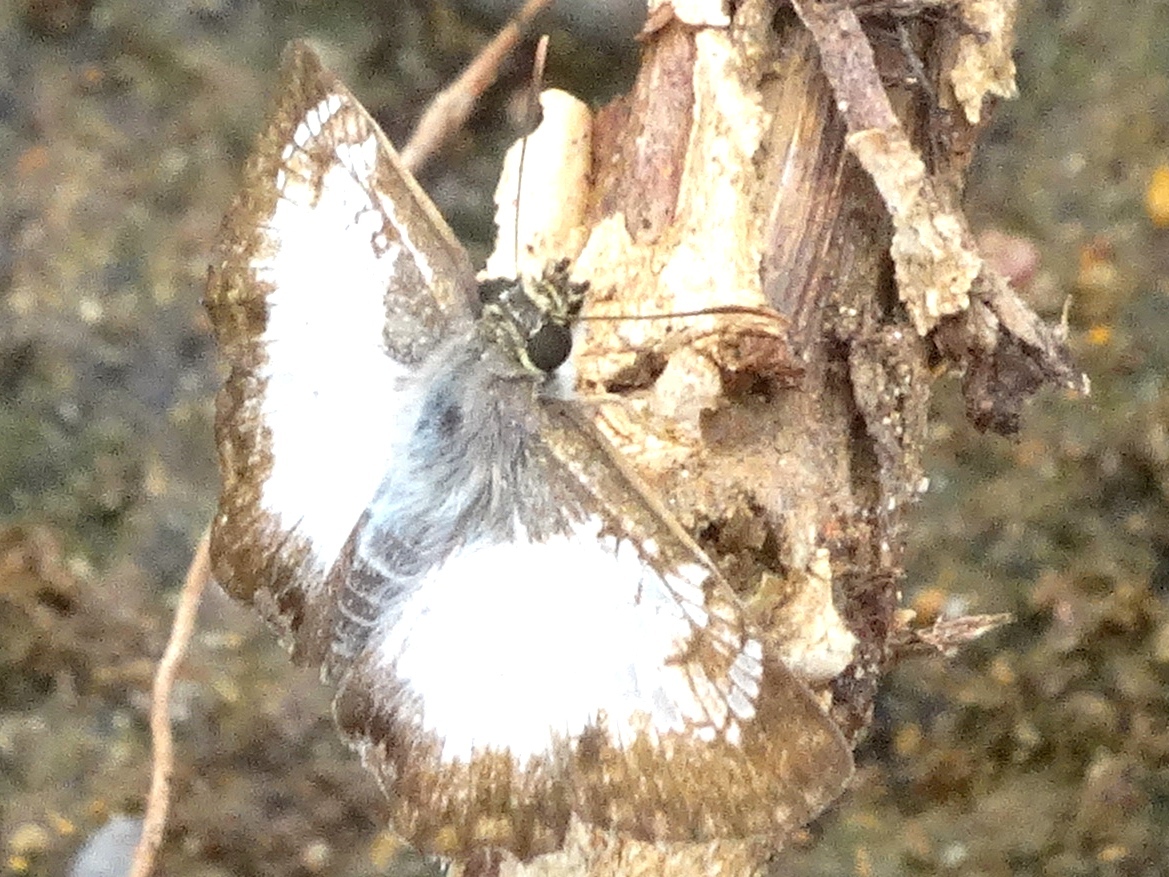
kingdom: Animalia
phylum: Arthropoda
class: Insecta
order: Lepidoptera
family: Hesperiidae
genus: Antigonus
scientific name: Antigonus emorsa
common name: White spurwing
